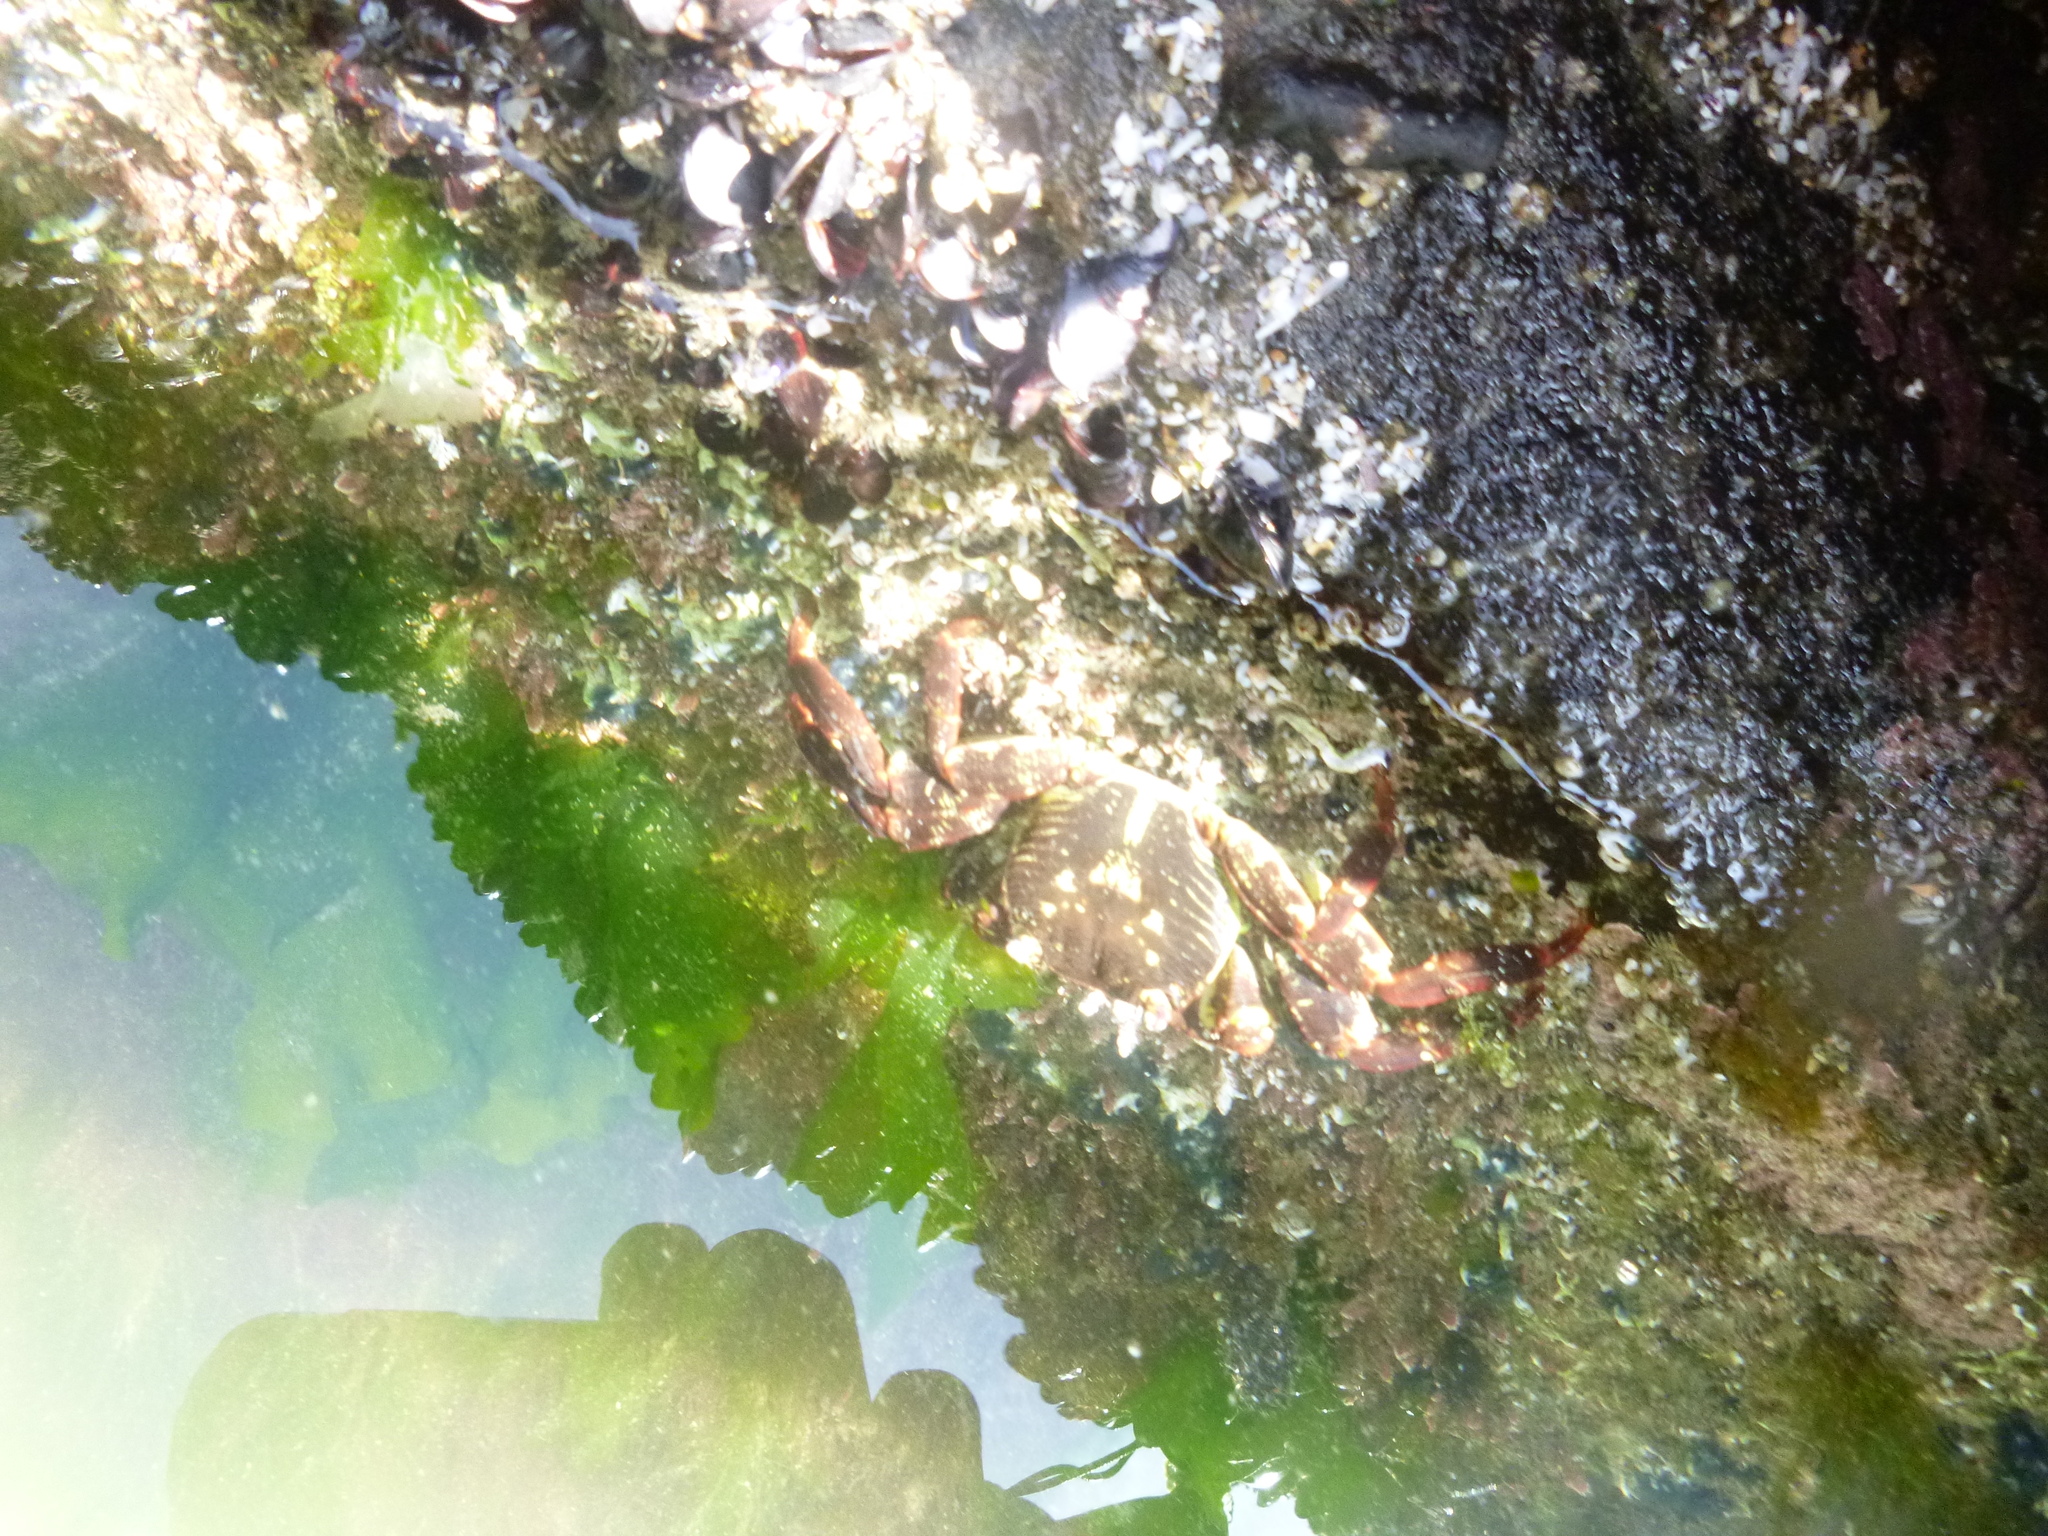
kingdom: Animalia
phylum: Arthropoda
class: Malacostraca
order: Decapoda
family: Grapsidae
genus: Leptograpsus
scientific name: Leptograpsus variegatus
